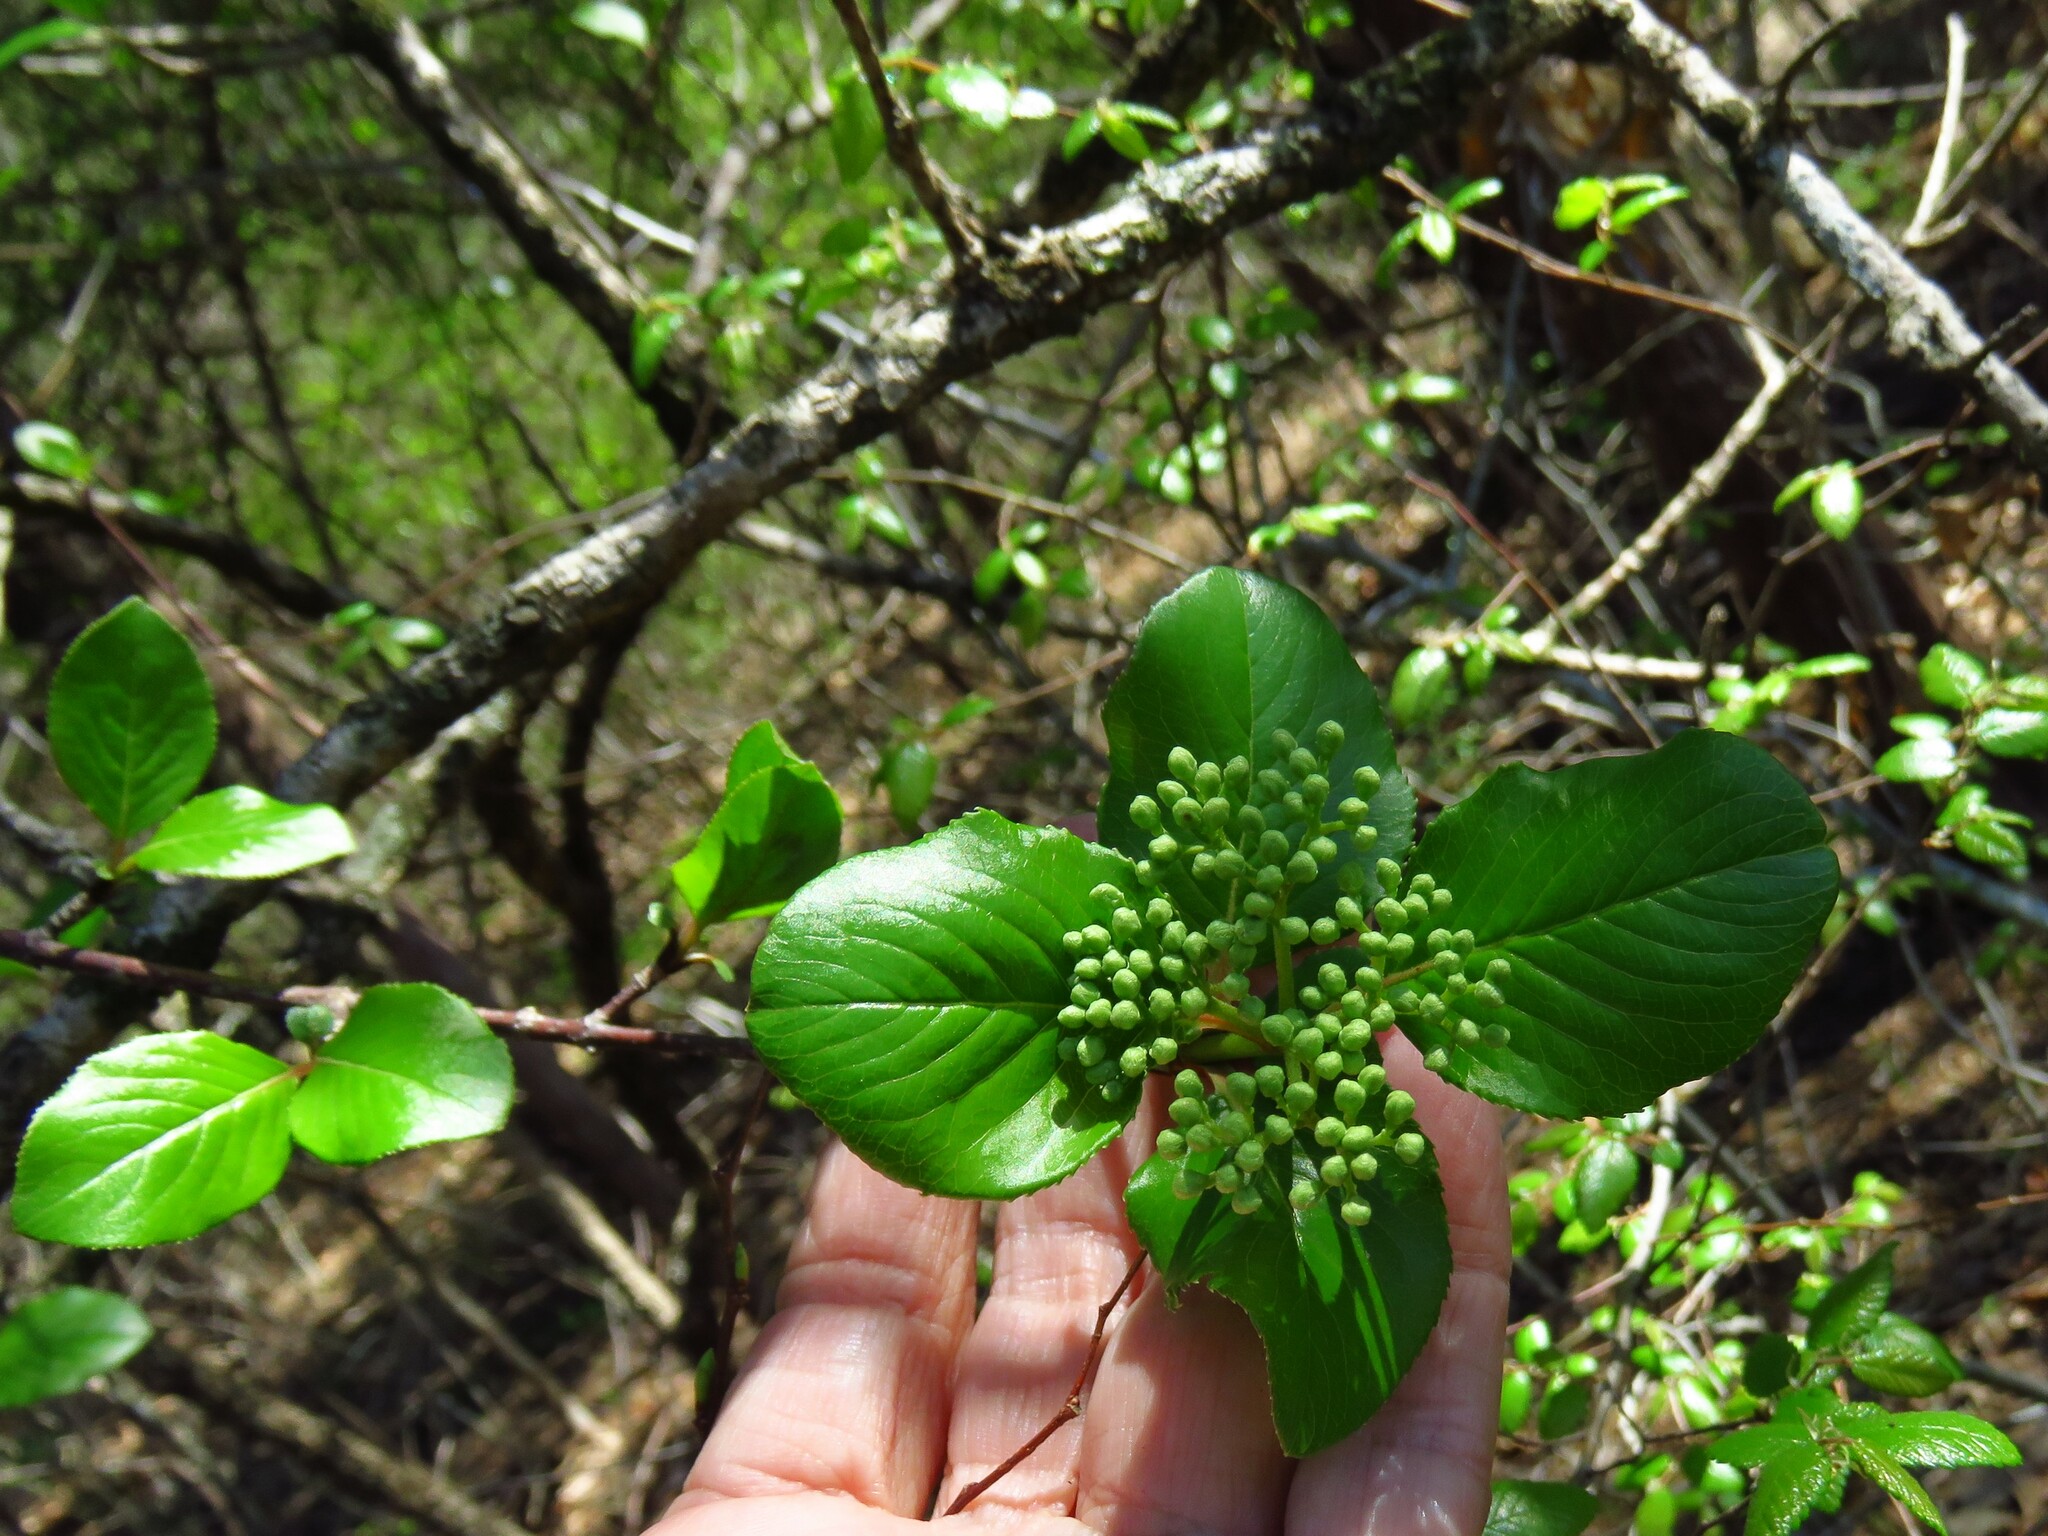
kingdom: Plantae
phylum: Tracheophyta
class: Magnoliopsida
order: Dipsacales
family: Viburnaceae
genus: Viburnum
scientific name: Viburnum rufidulum
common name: Blue haw
